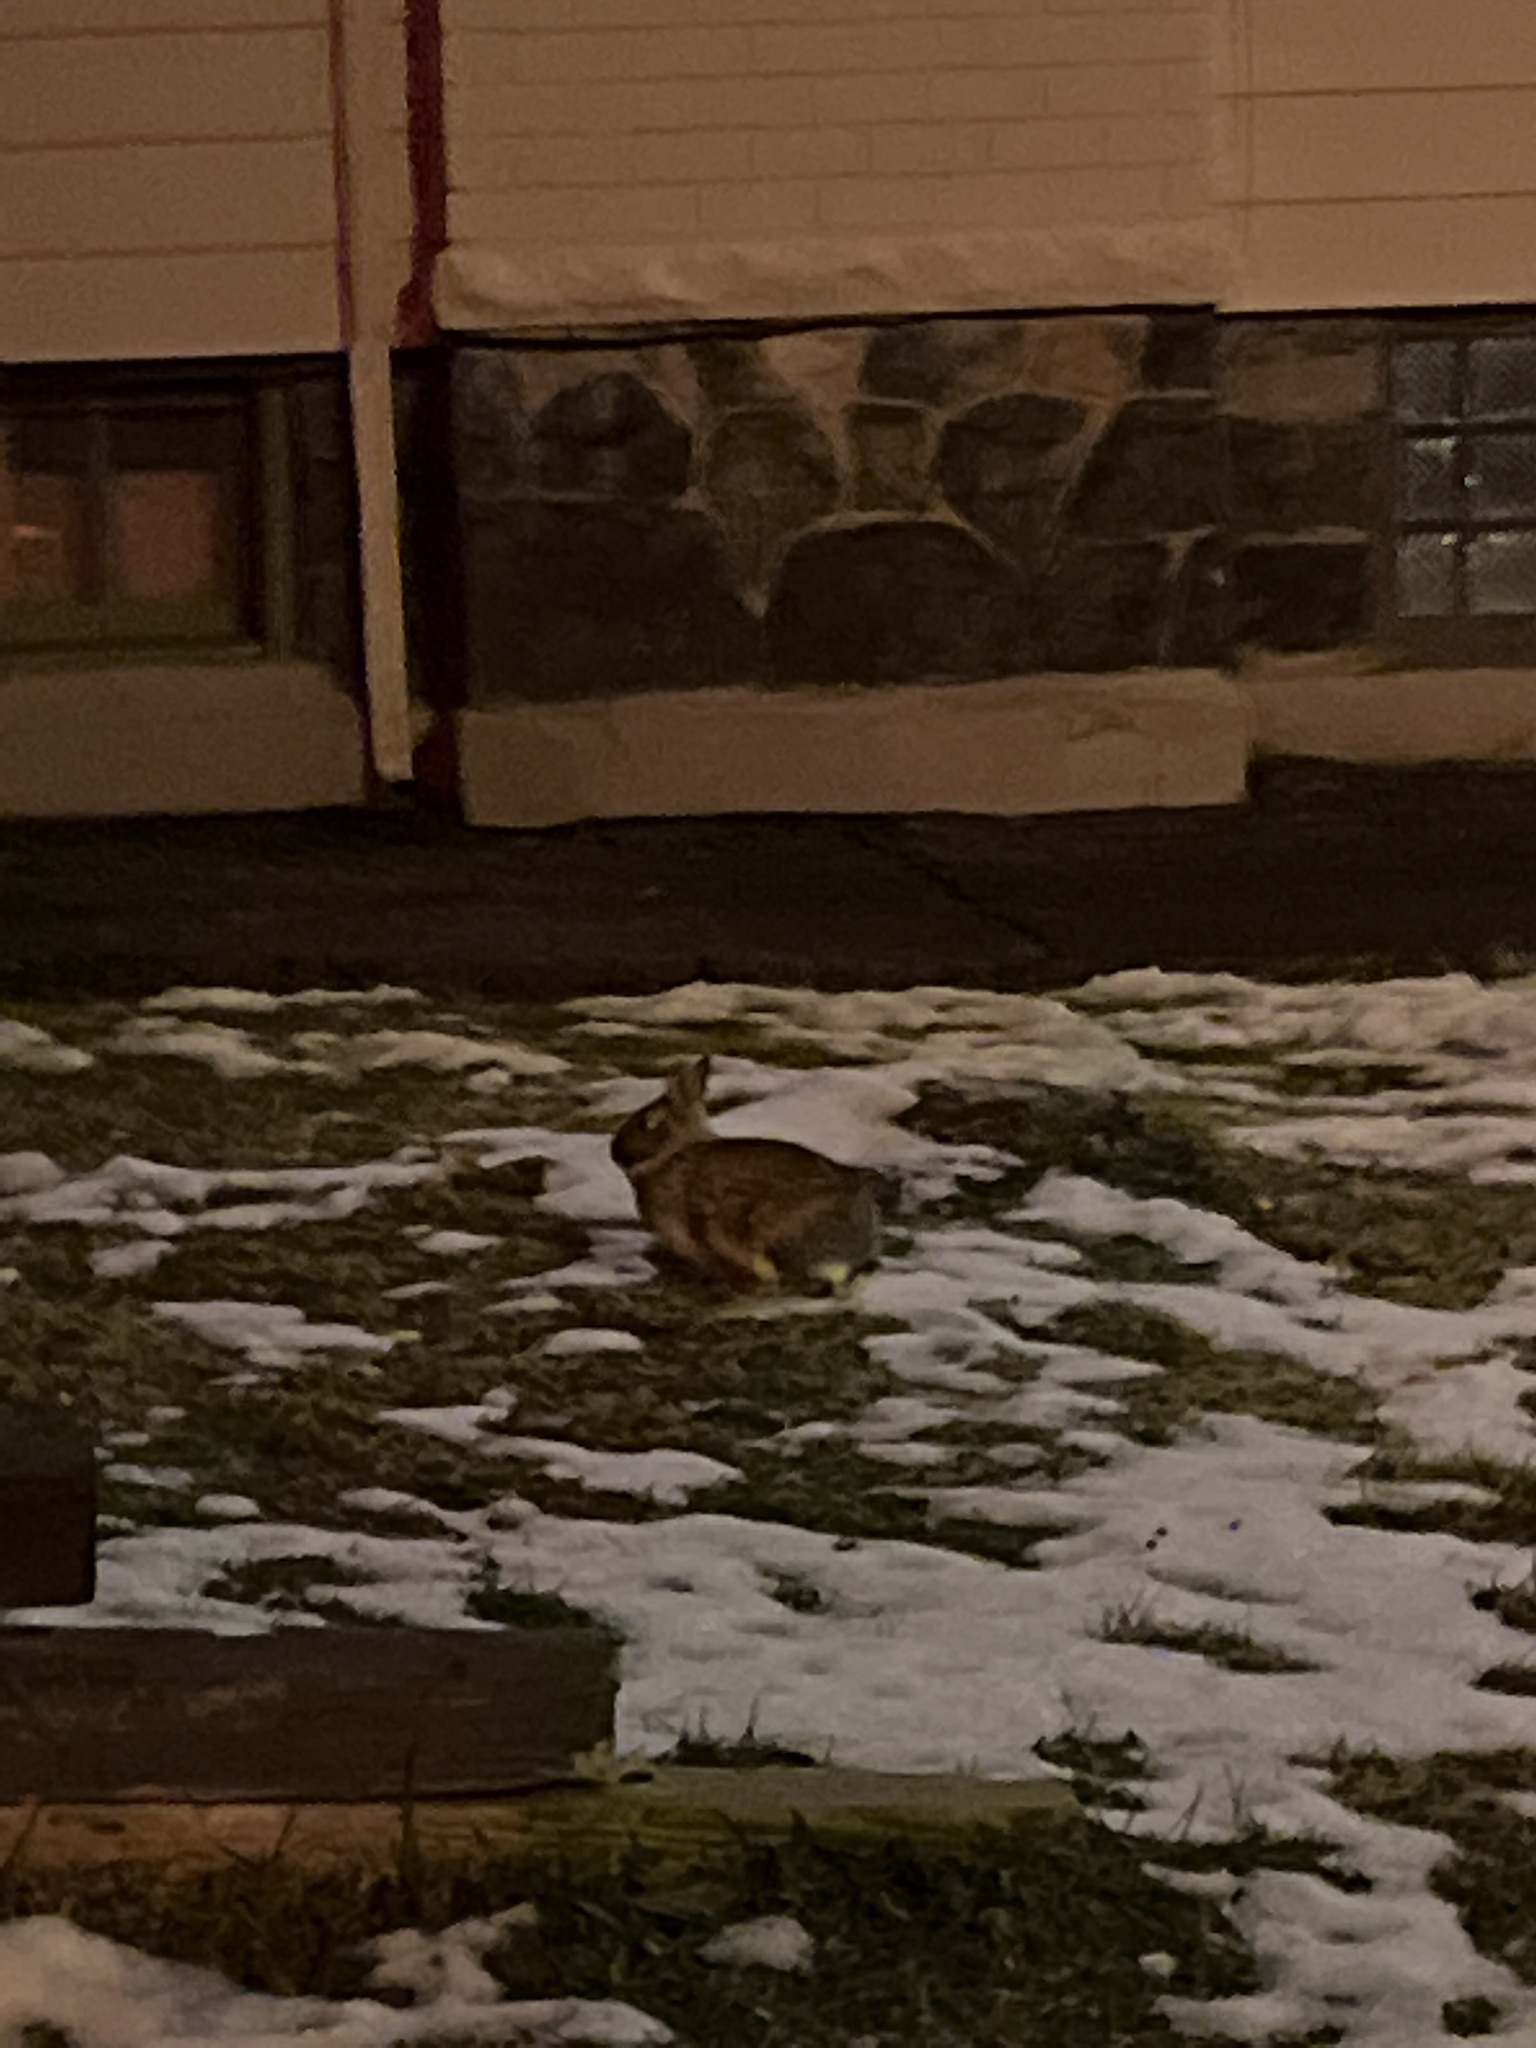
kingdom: Animalia
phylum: Chordata
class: Mammalia
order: Lagomorpha
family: Leporidae
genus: Sylvilagus
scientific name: Sylvilagus floridanus
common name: Eastern cottontail
